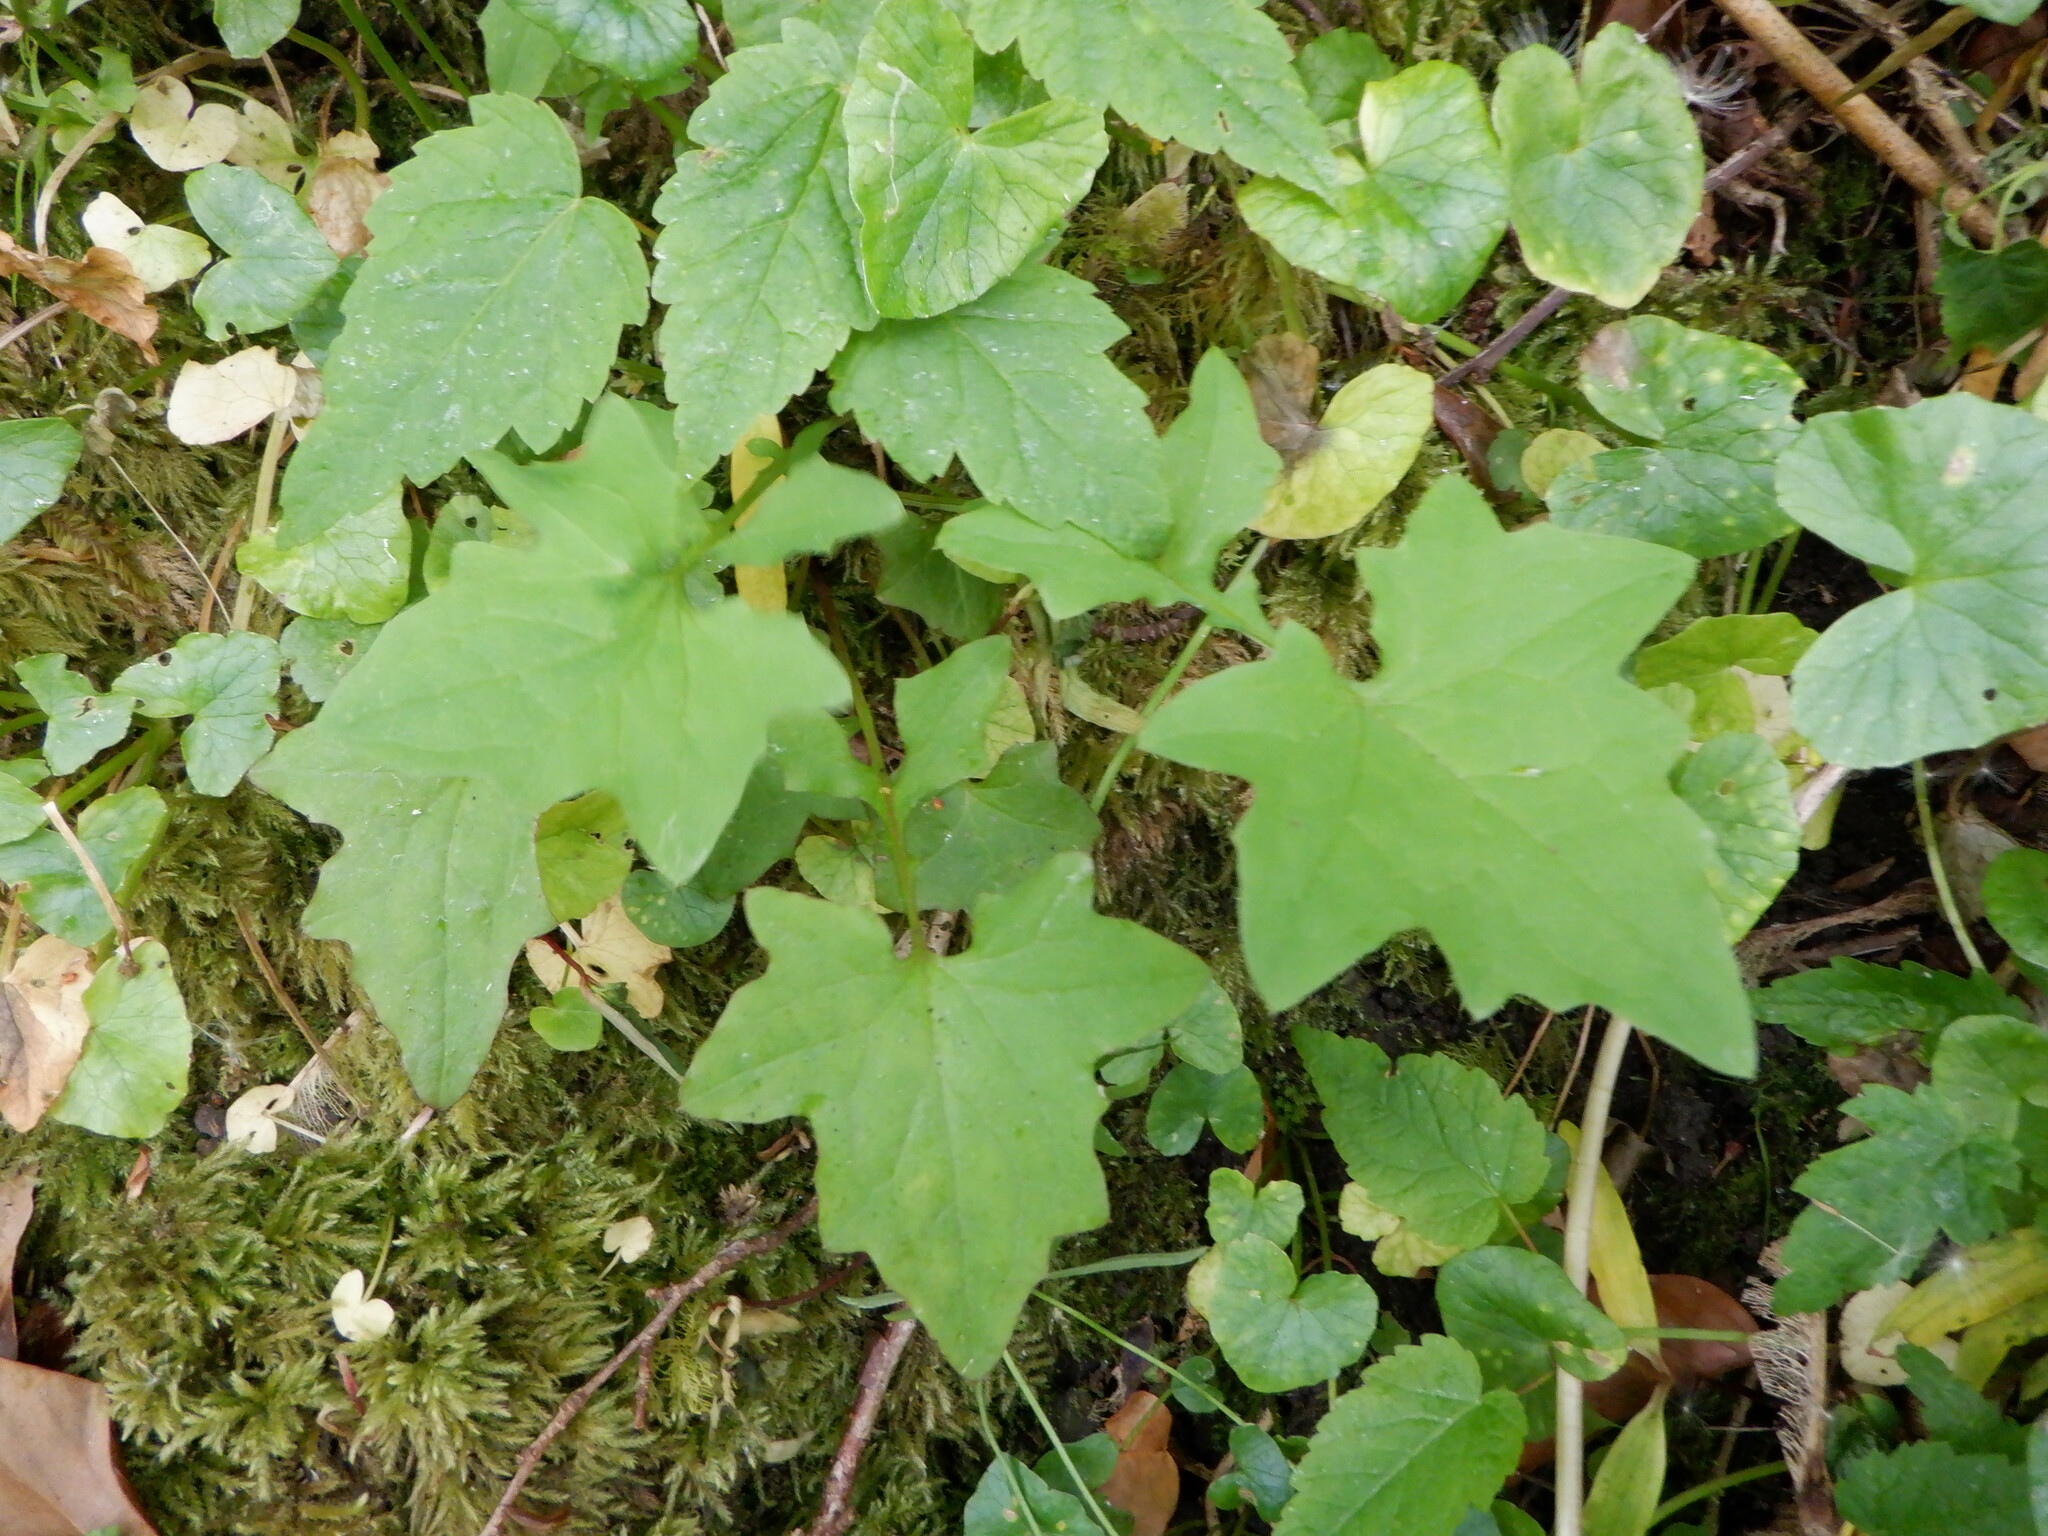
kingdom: Plantae
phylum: Tracheophyta
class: Magnoliopsida
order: Asterales
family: Asteraceae
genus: Mycelis
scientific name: Mycelis muralis
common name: Wall lettuce
